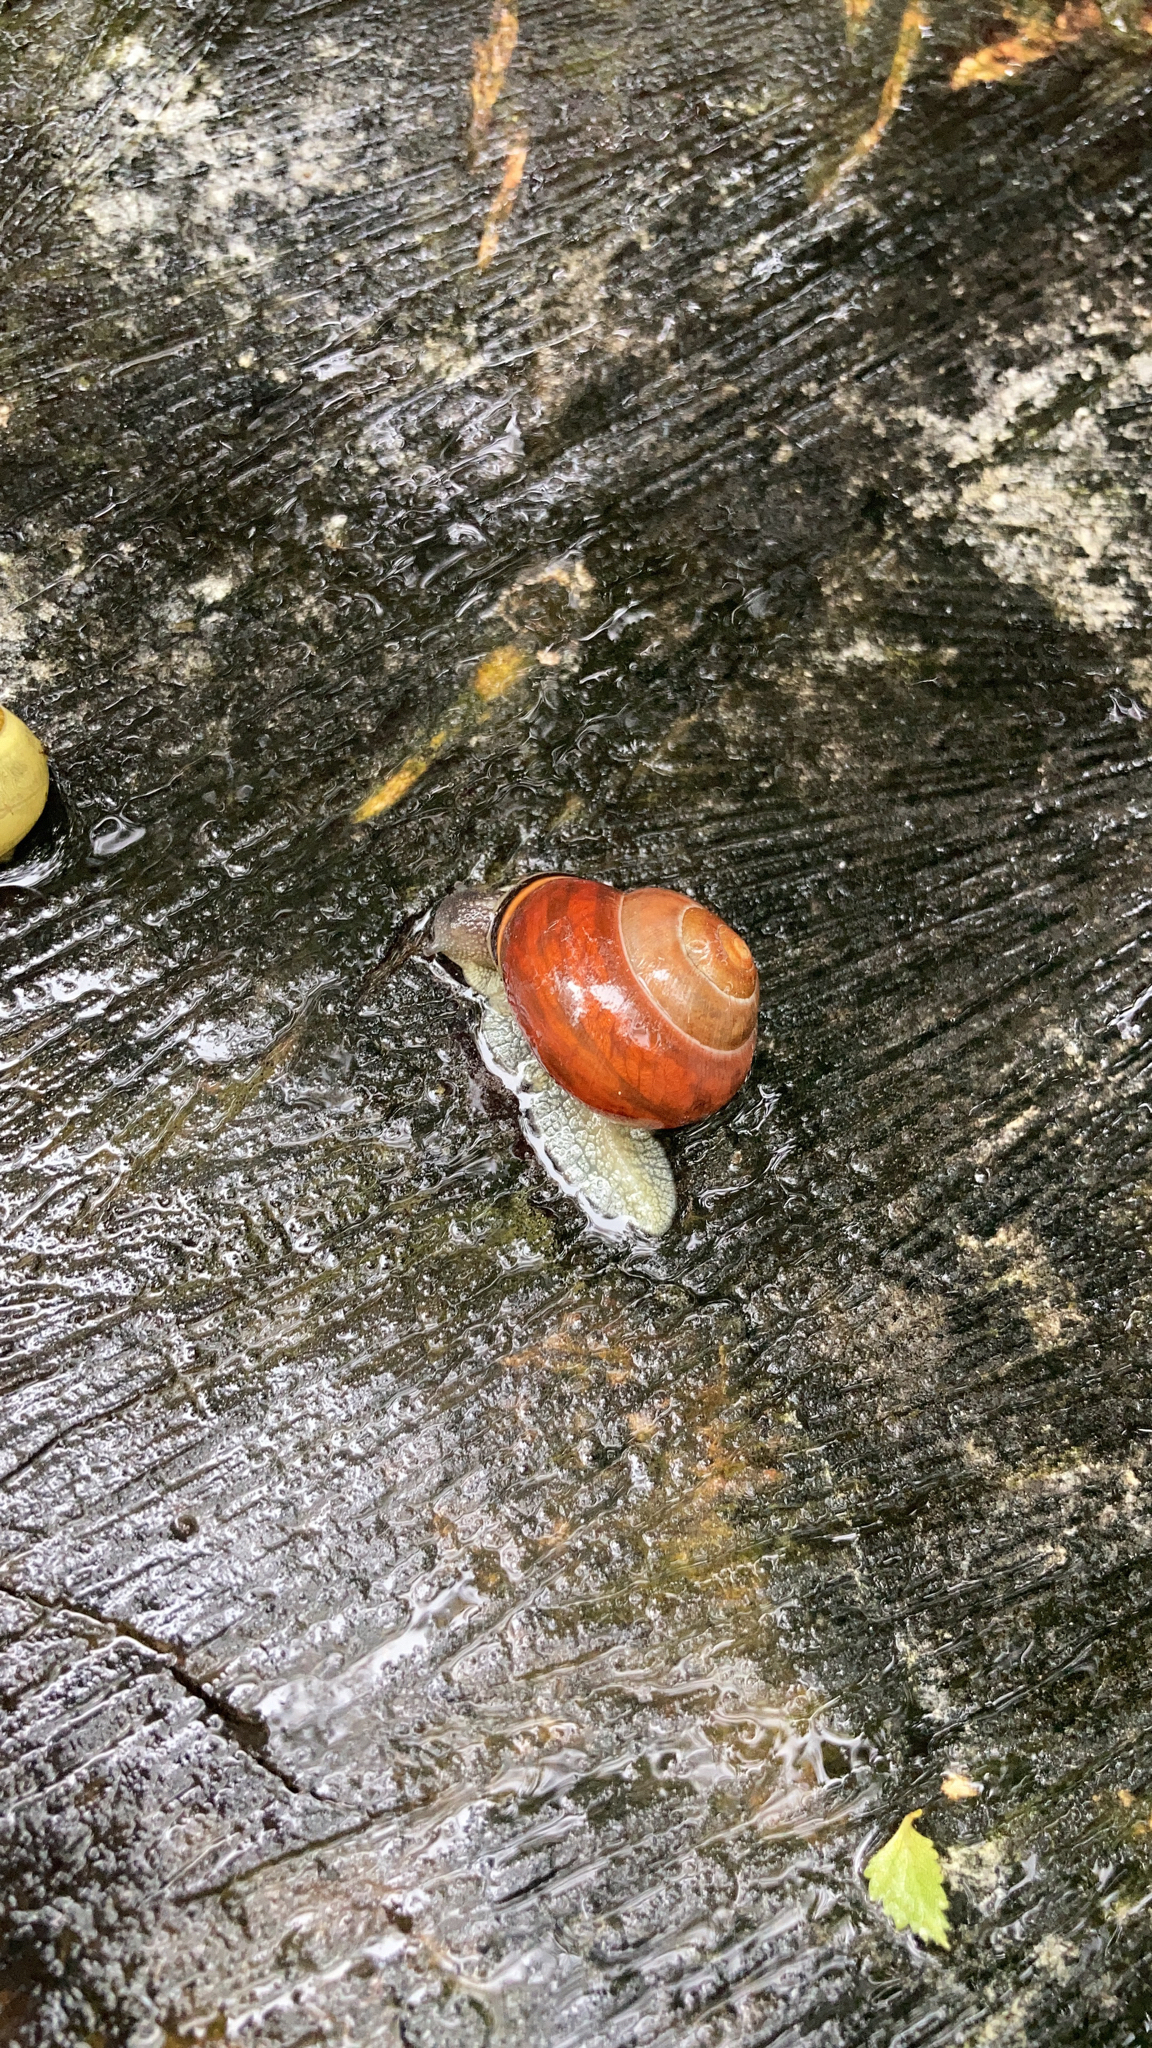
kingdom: Animalia
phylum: Mollusca
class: Gastropoda
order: Stylommatophora
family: Helicidae
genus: Cepaea
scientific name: Cepaea nemoralis
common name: Grovesnail
